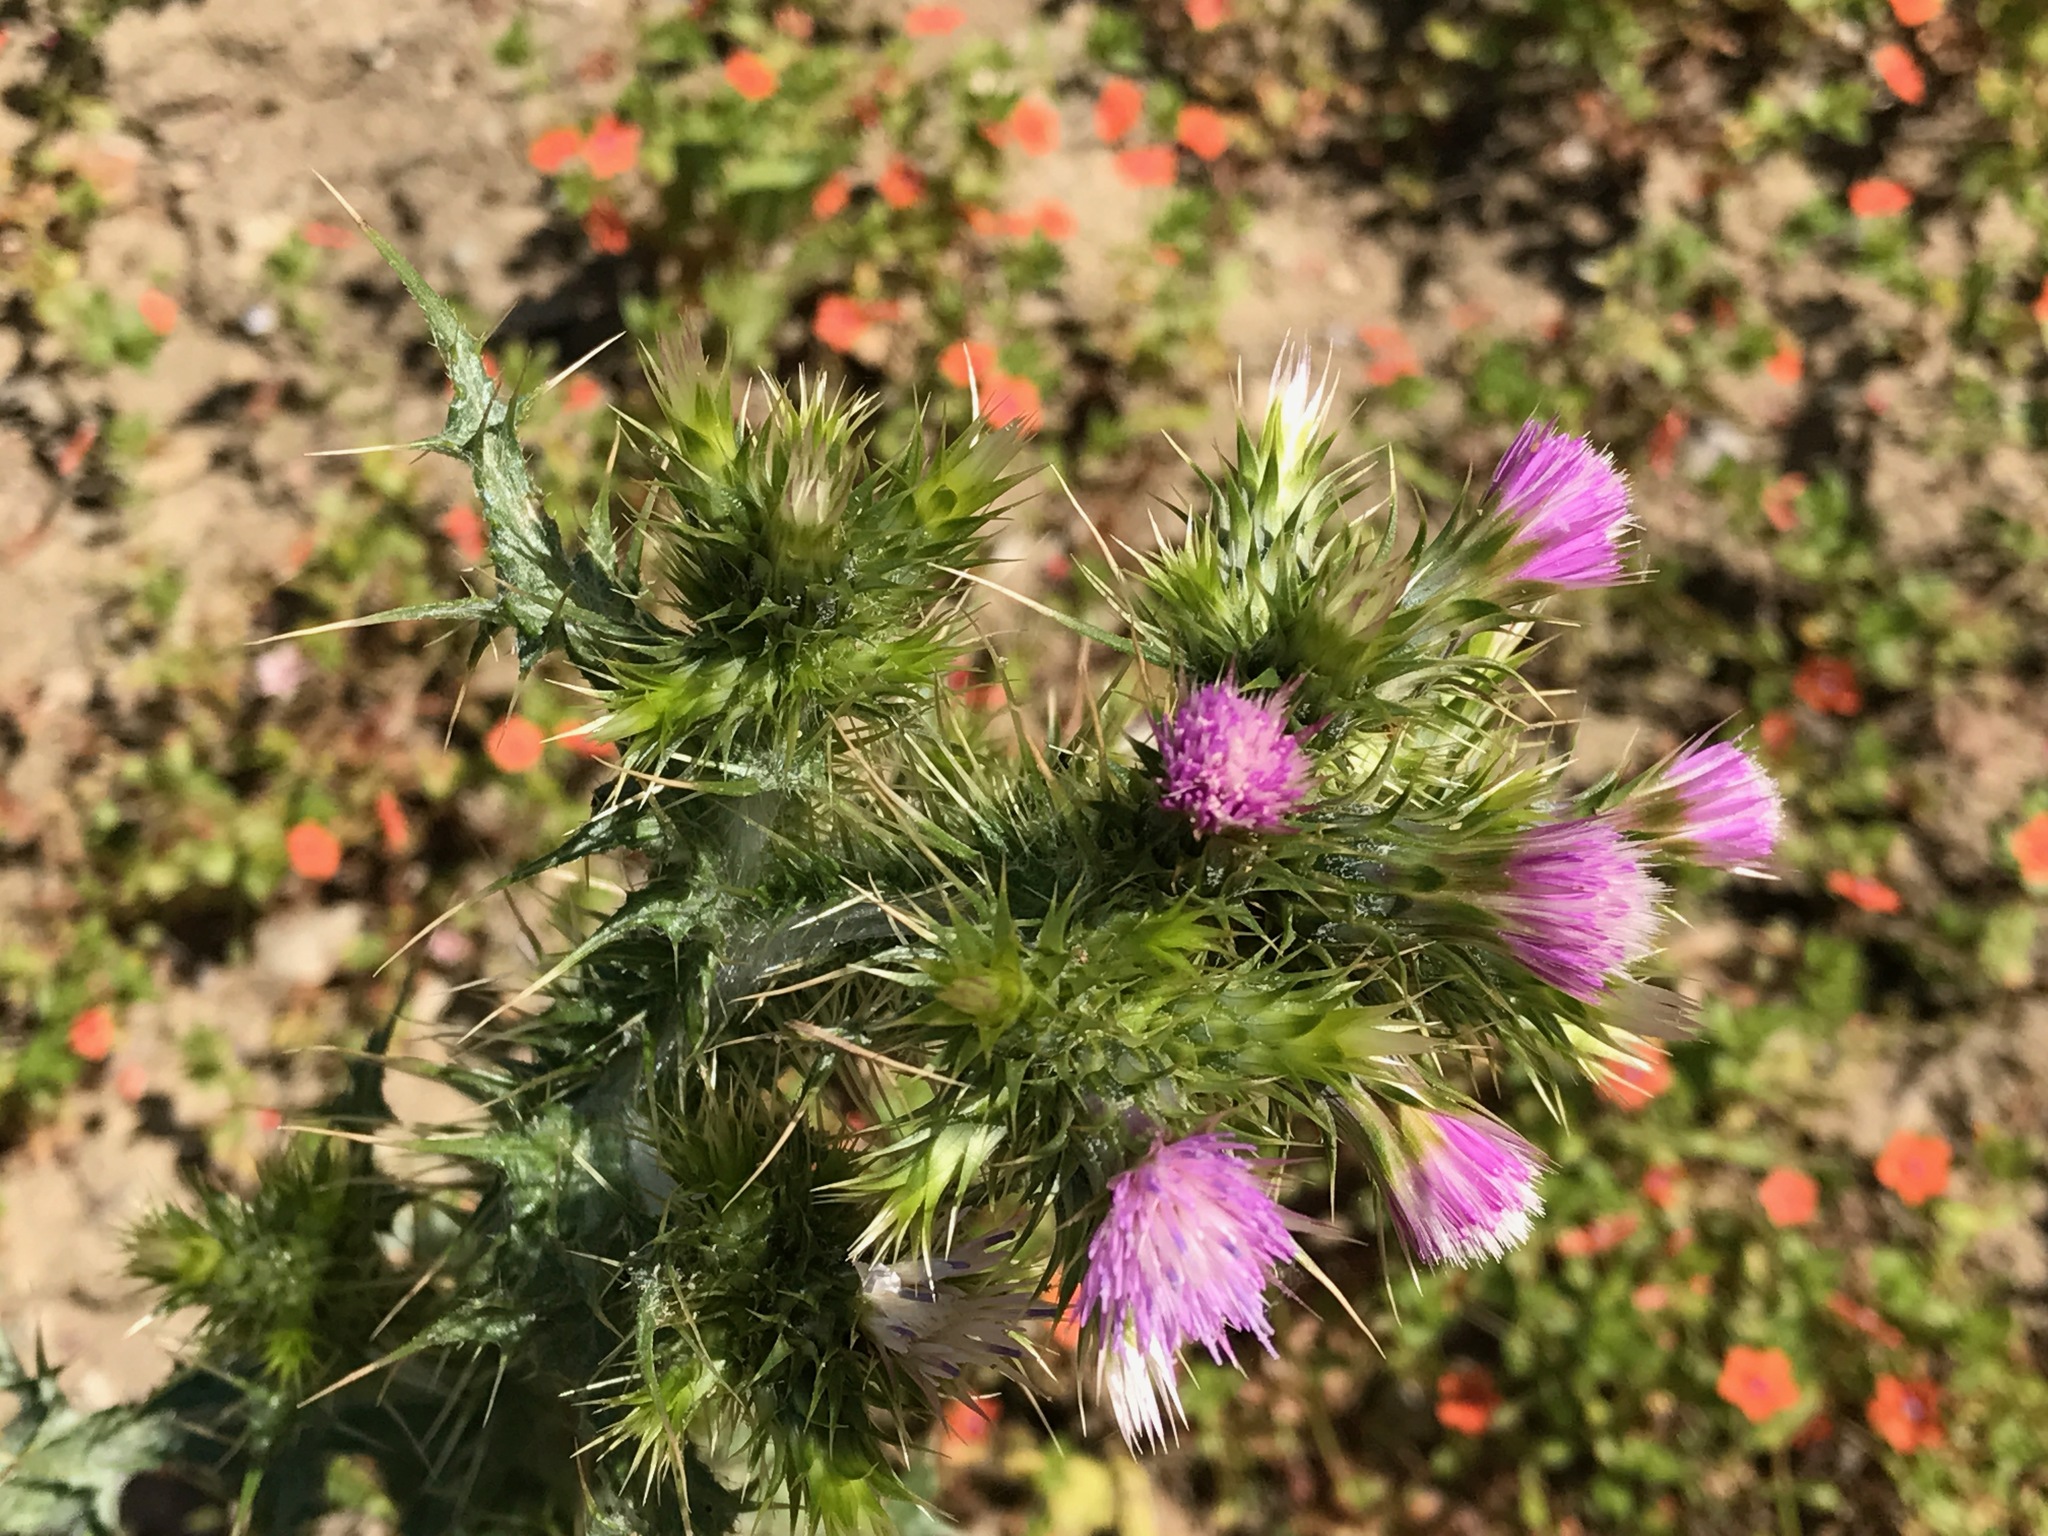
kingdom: Plantae
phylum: Tracheophyta
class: Magnoliopsida
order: Asterales
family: Asteraceae
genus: Carduus
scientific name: Carduus pycnocephalus
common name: Plymouth thistle
